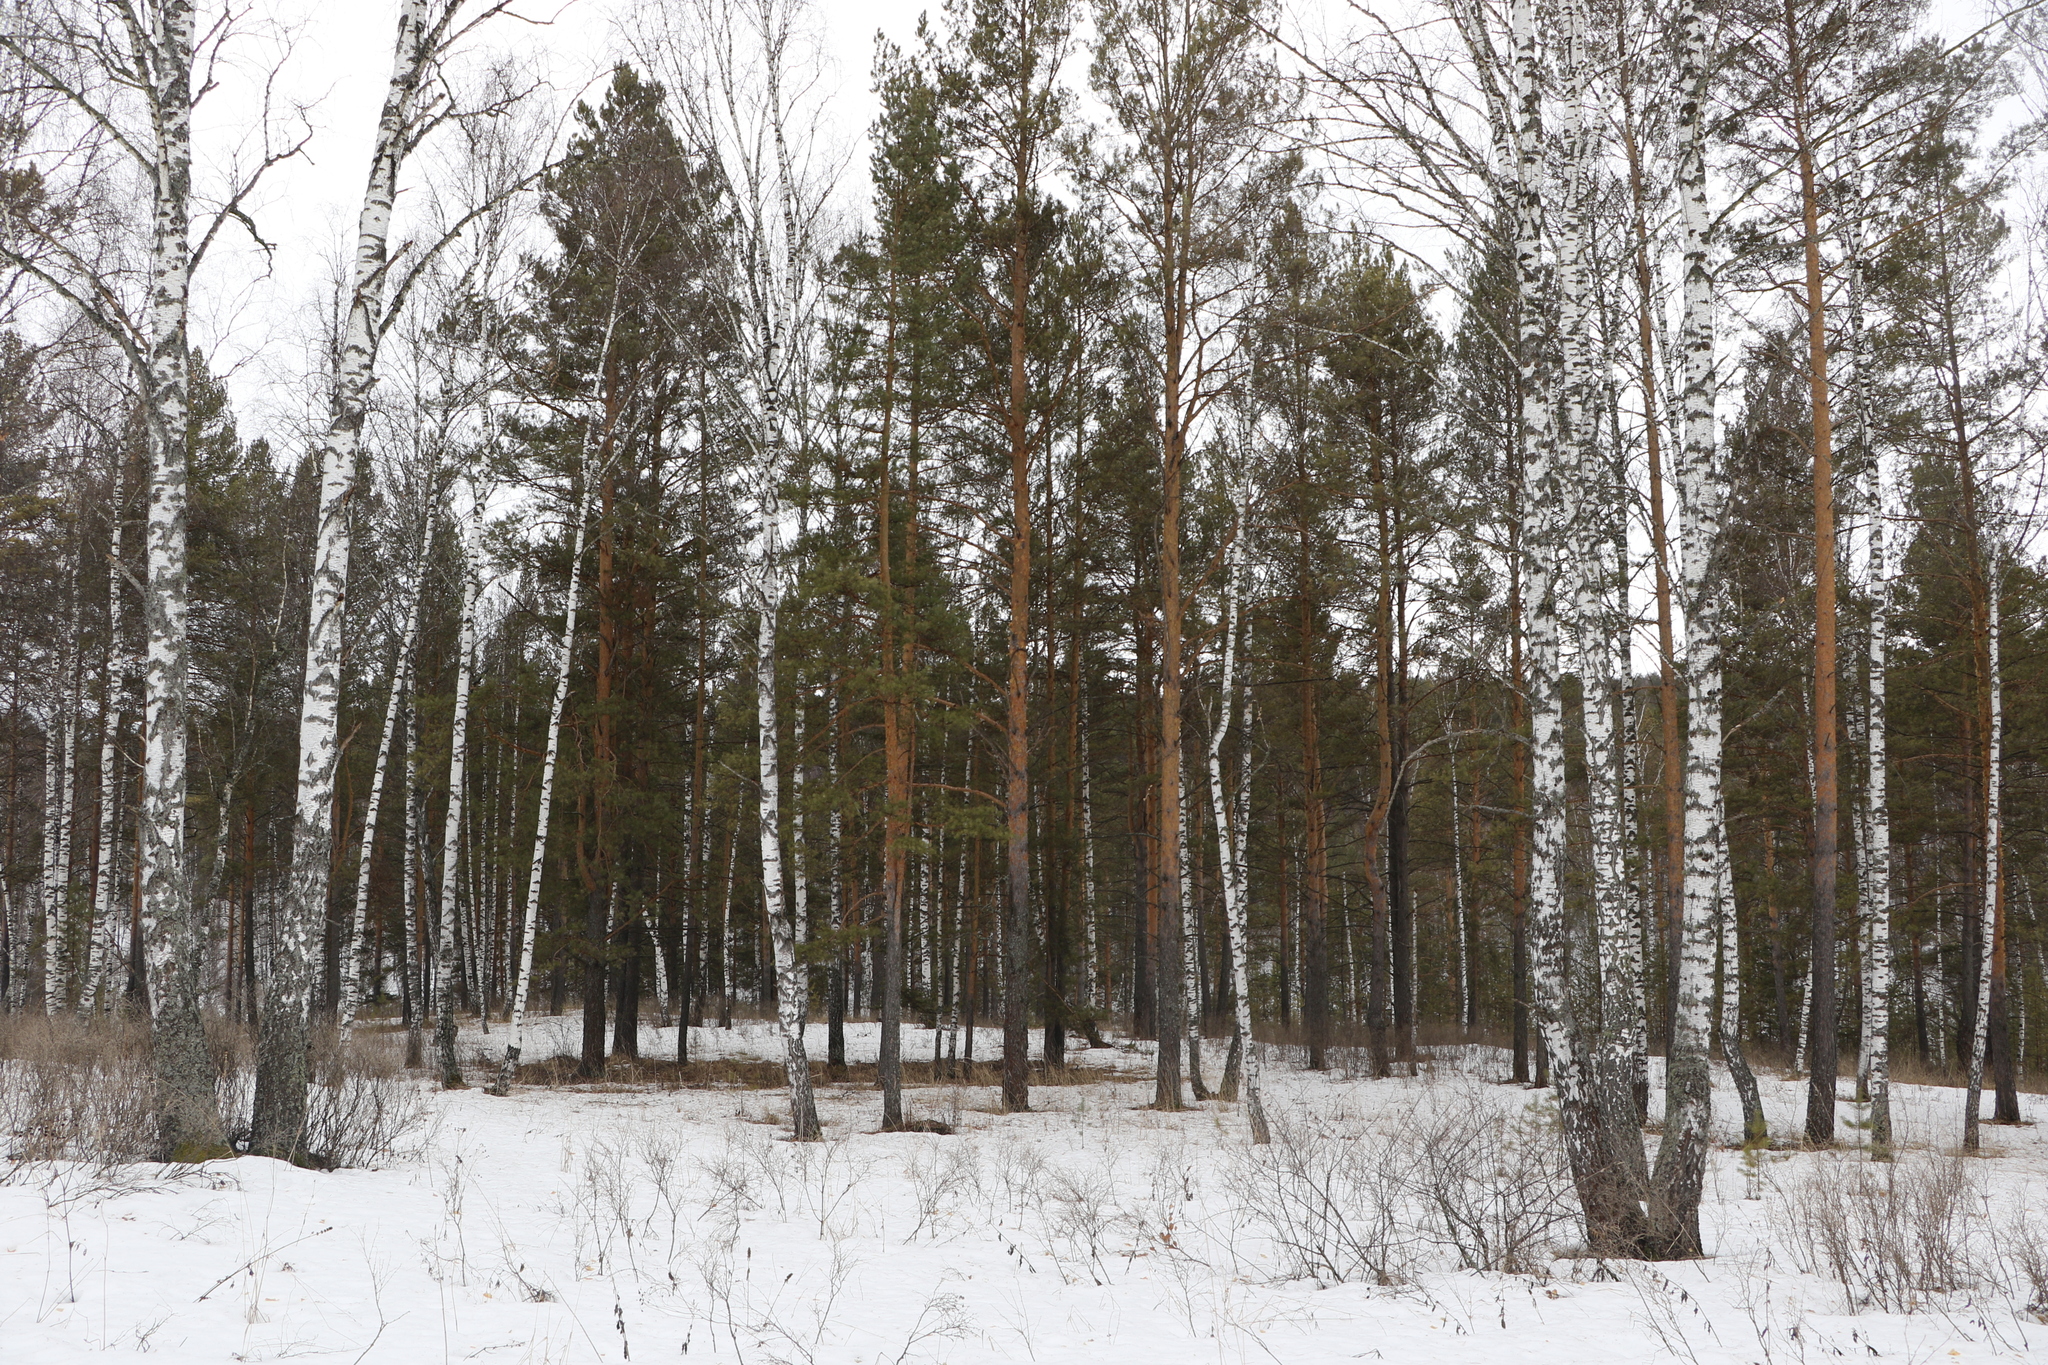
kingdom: Plantae
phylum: Tracheophyta
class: Pinopsida
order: Pinales
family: Pinaceae
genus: Pinus
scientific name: Pinus sylvestris
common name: Scots pine
